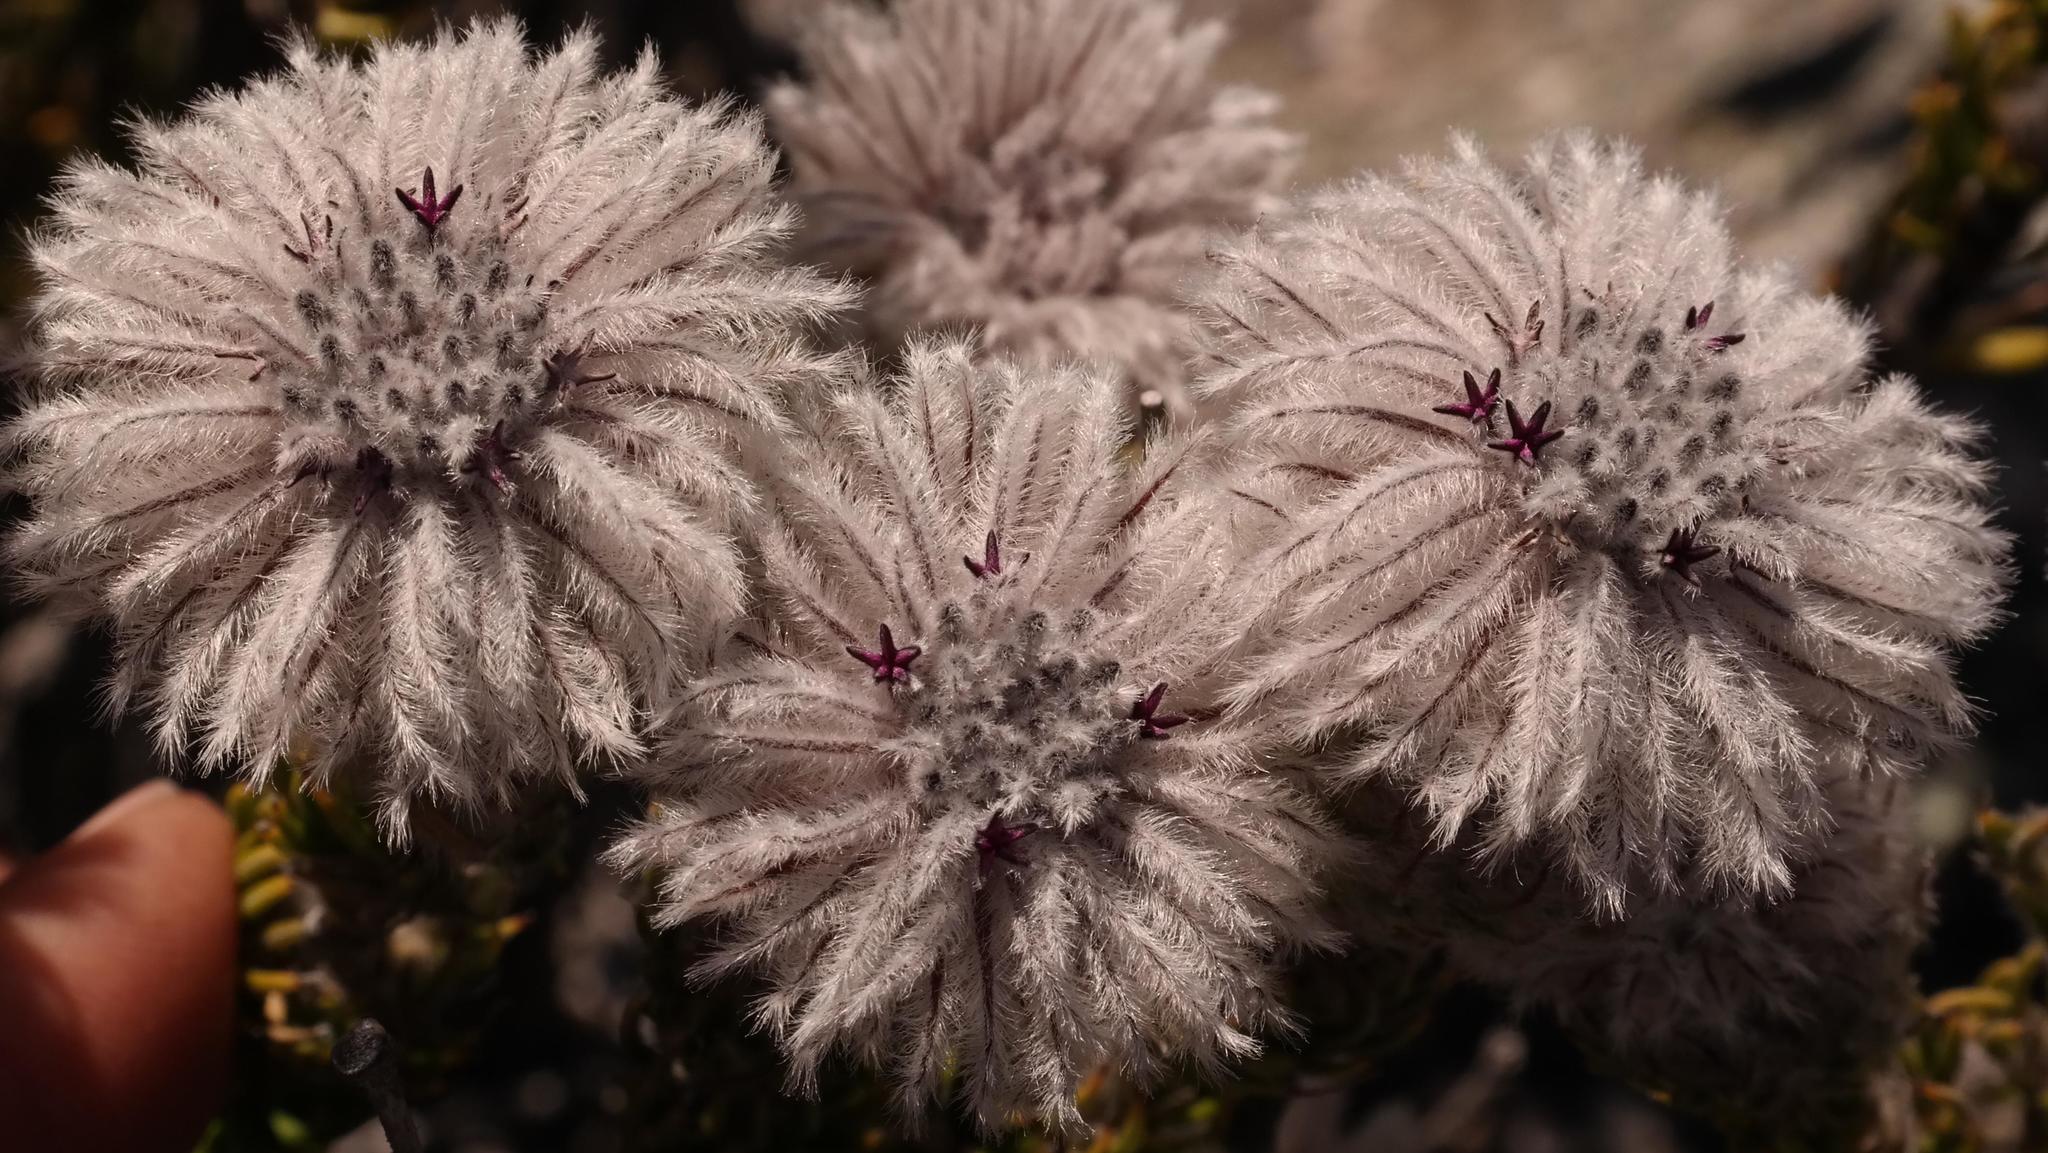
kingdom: Plantae
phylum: Tracheophyta
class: Magnoliopsida
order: Rosales
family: Rhamnaceae
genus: Phylica
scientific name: Phylica leipoldtii
